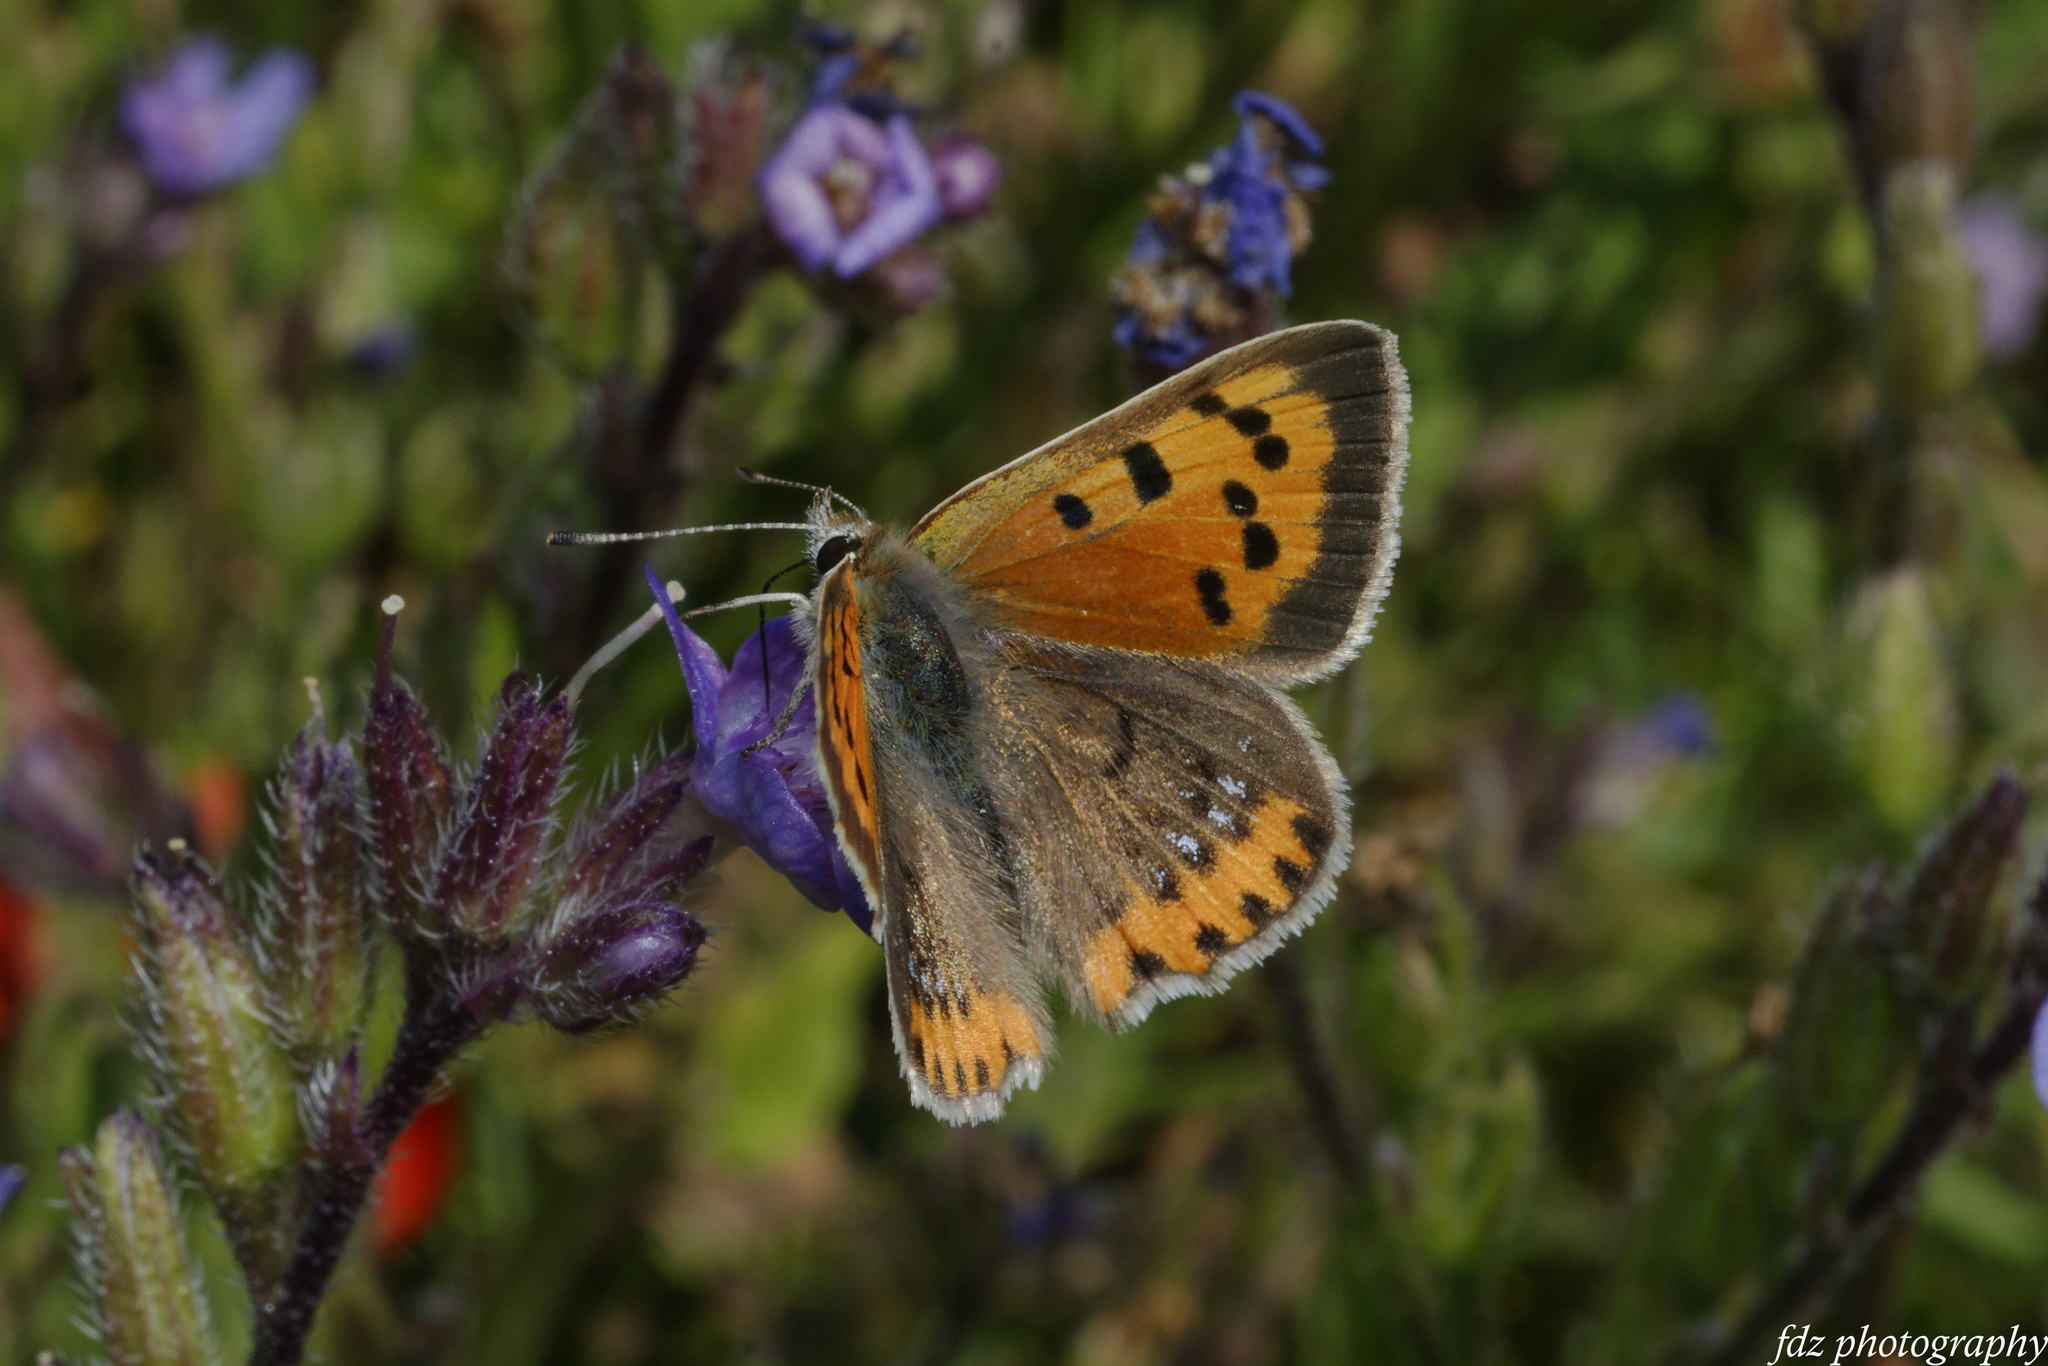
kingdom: Animalia
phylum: Arthropoda
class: Insecta
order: Lepidoptera
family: Lycaenidae
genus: Lycaena
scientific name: Lycaena phlaeas
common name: Small copper
